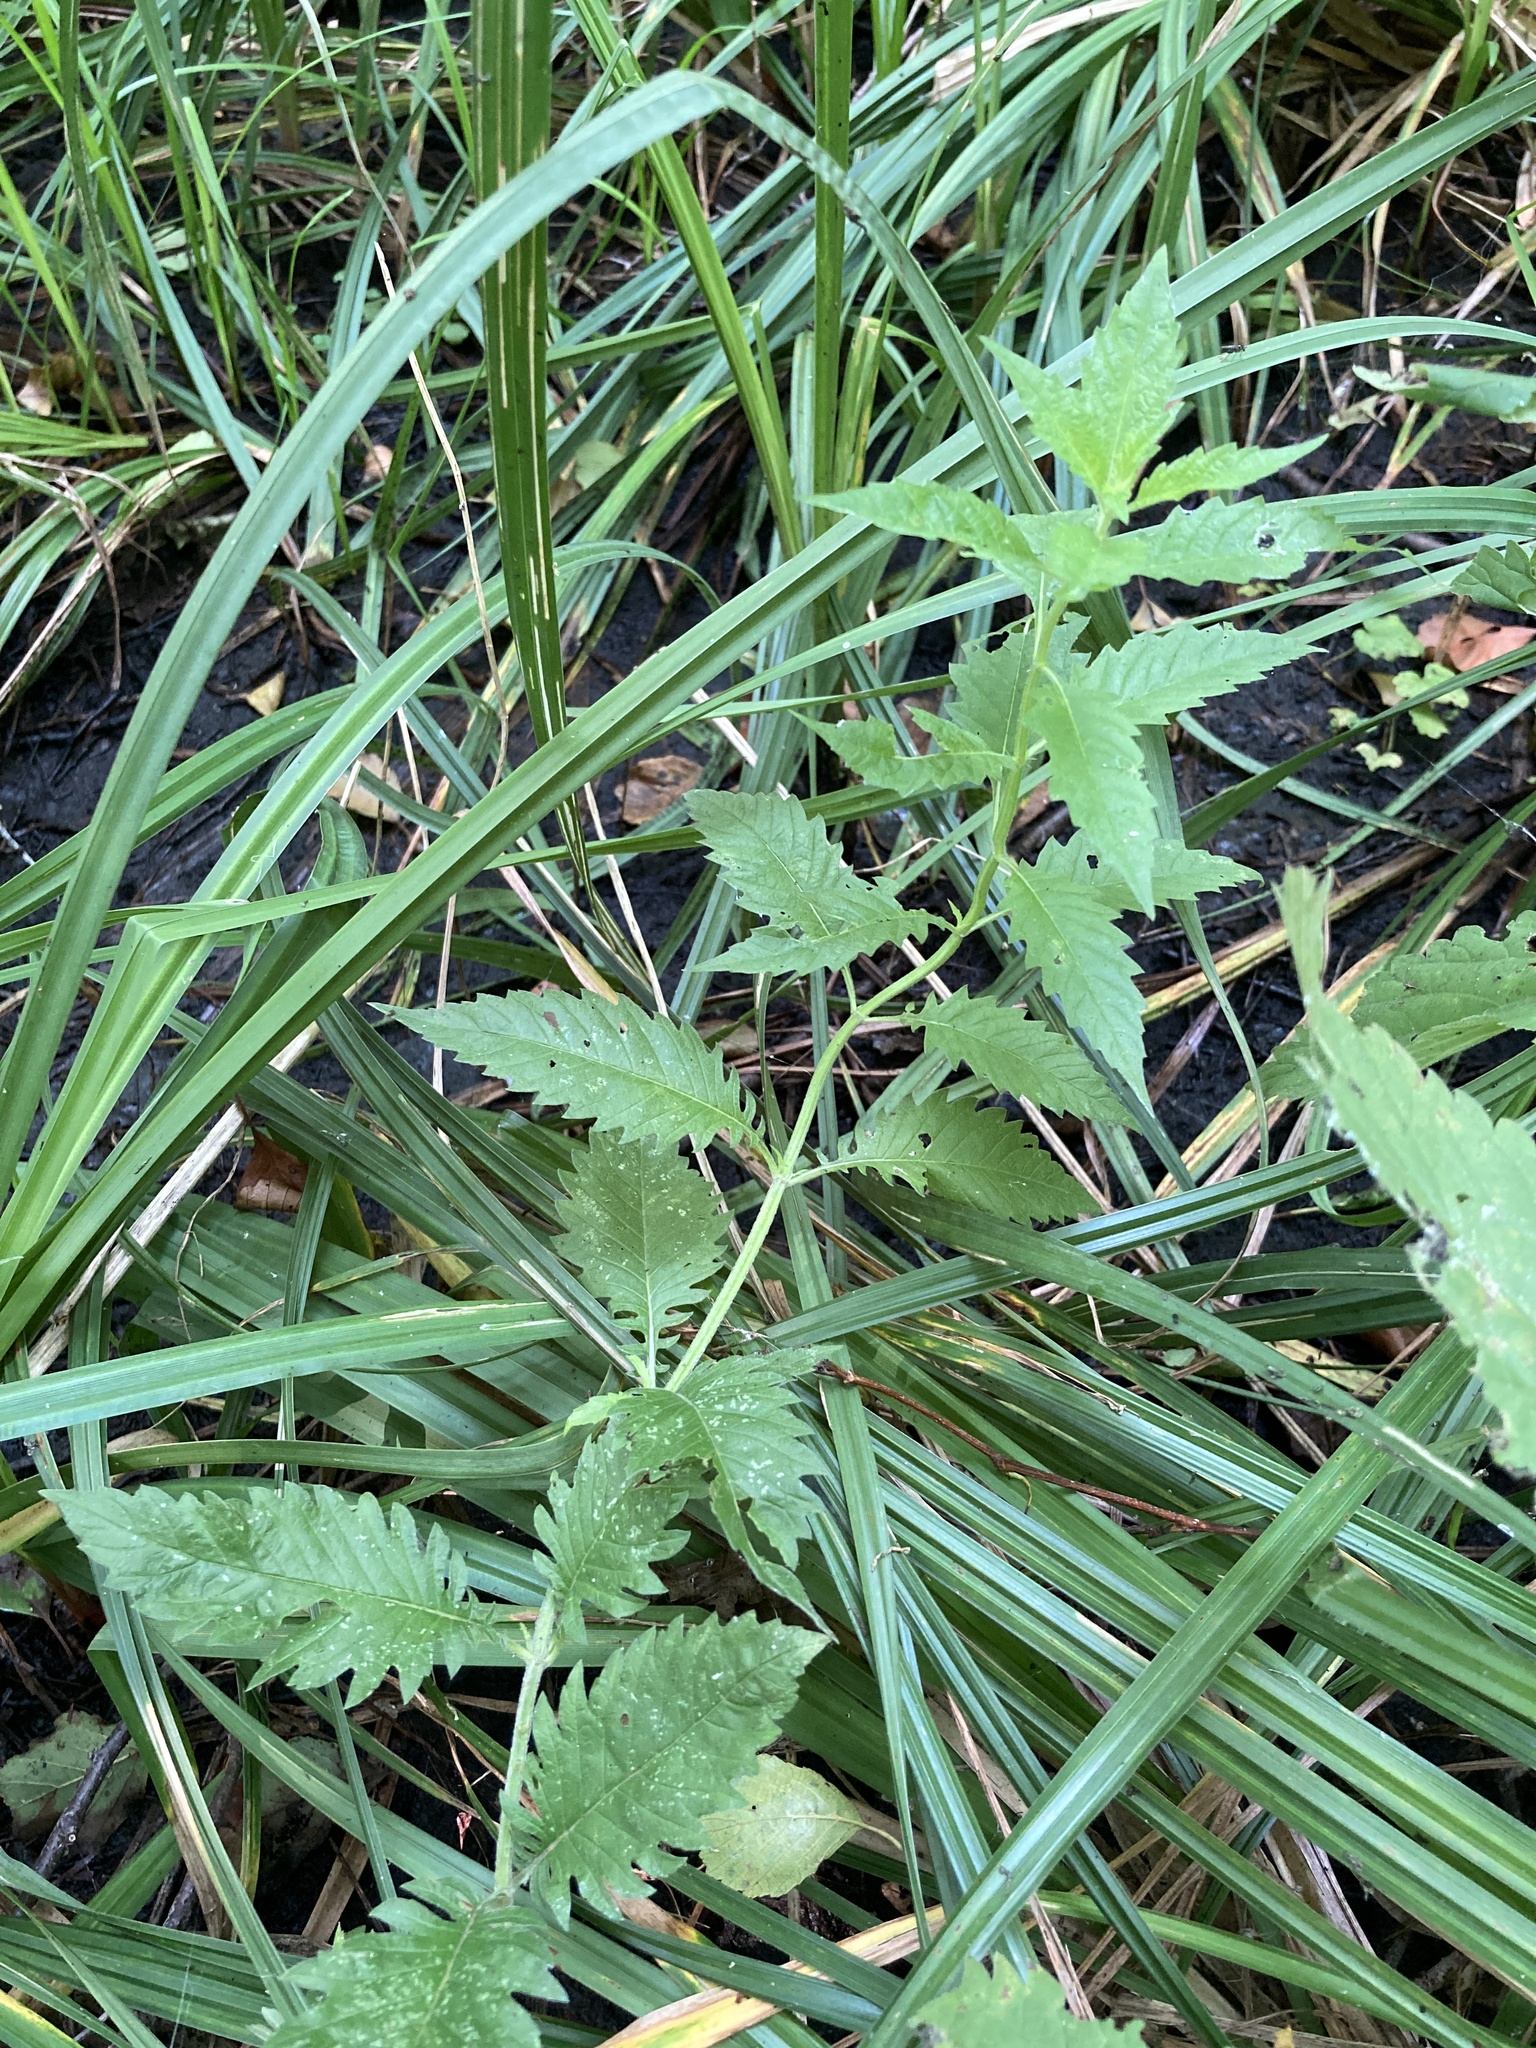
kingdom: Plantae
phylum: Tracheophyta
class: Magnoliopsida
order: Lamiales
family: Lamiaceae
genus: Lycopus
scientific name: Lycopus europaeus
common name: European bugleweed
